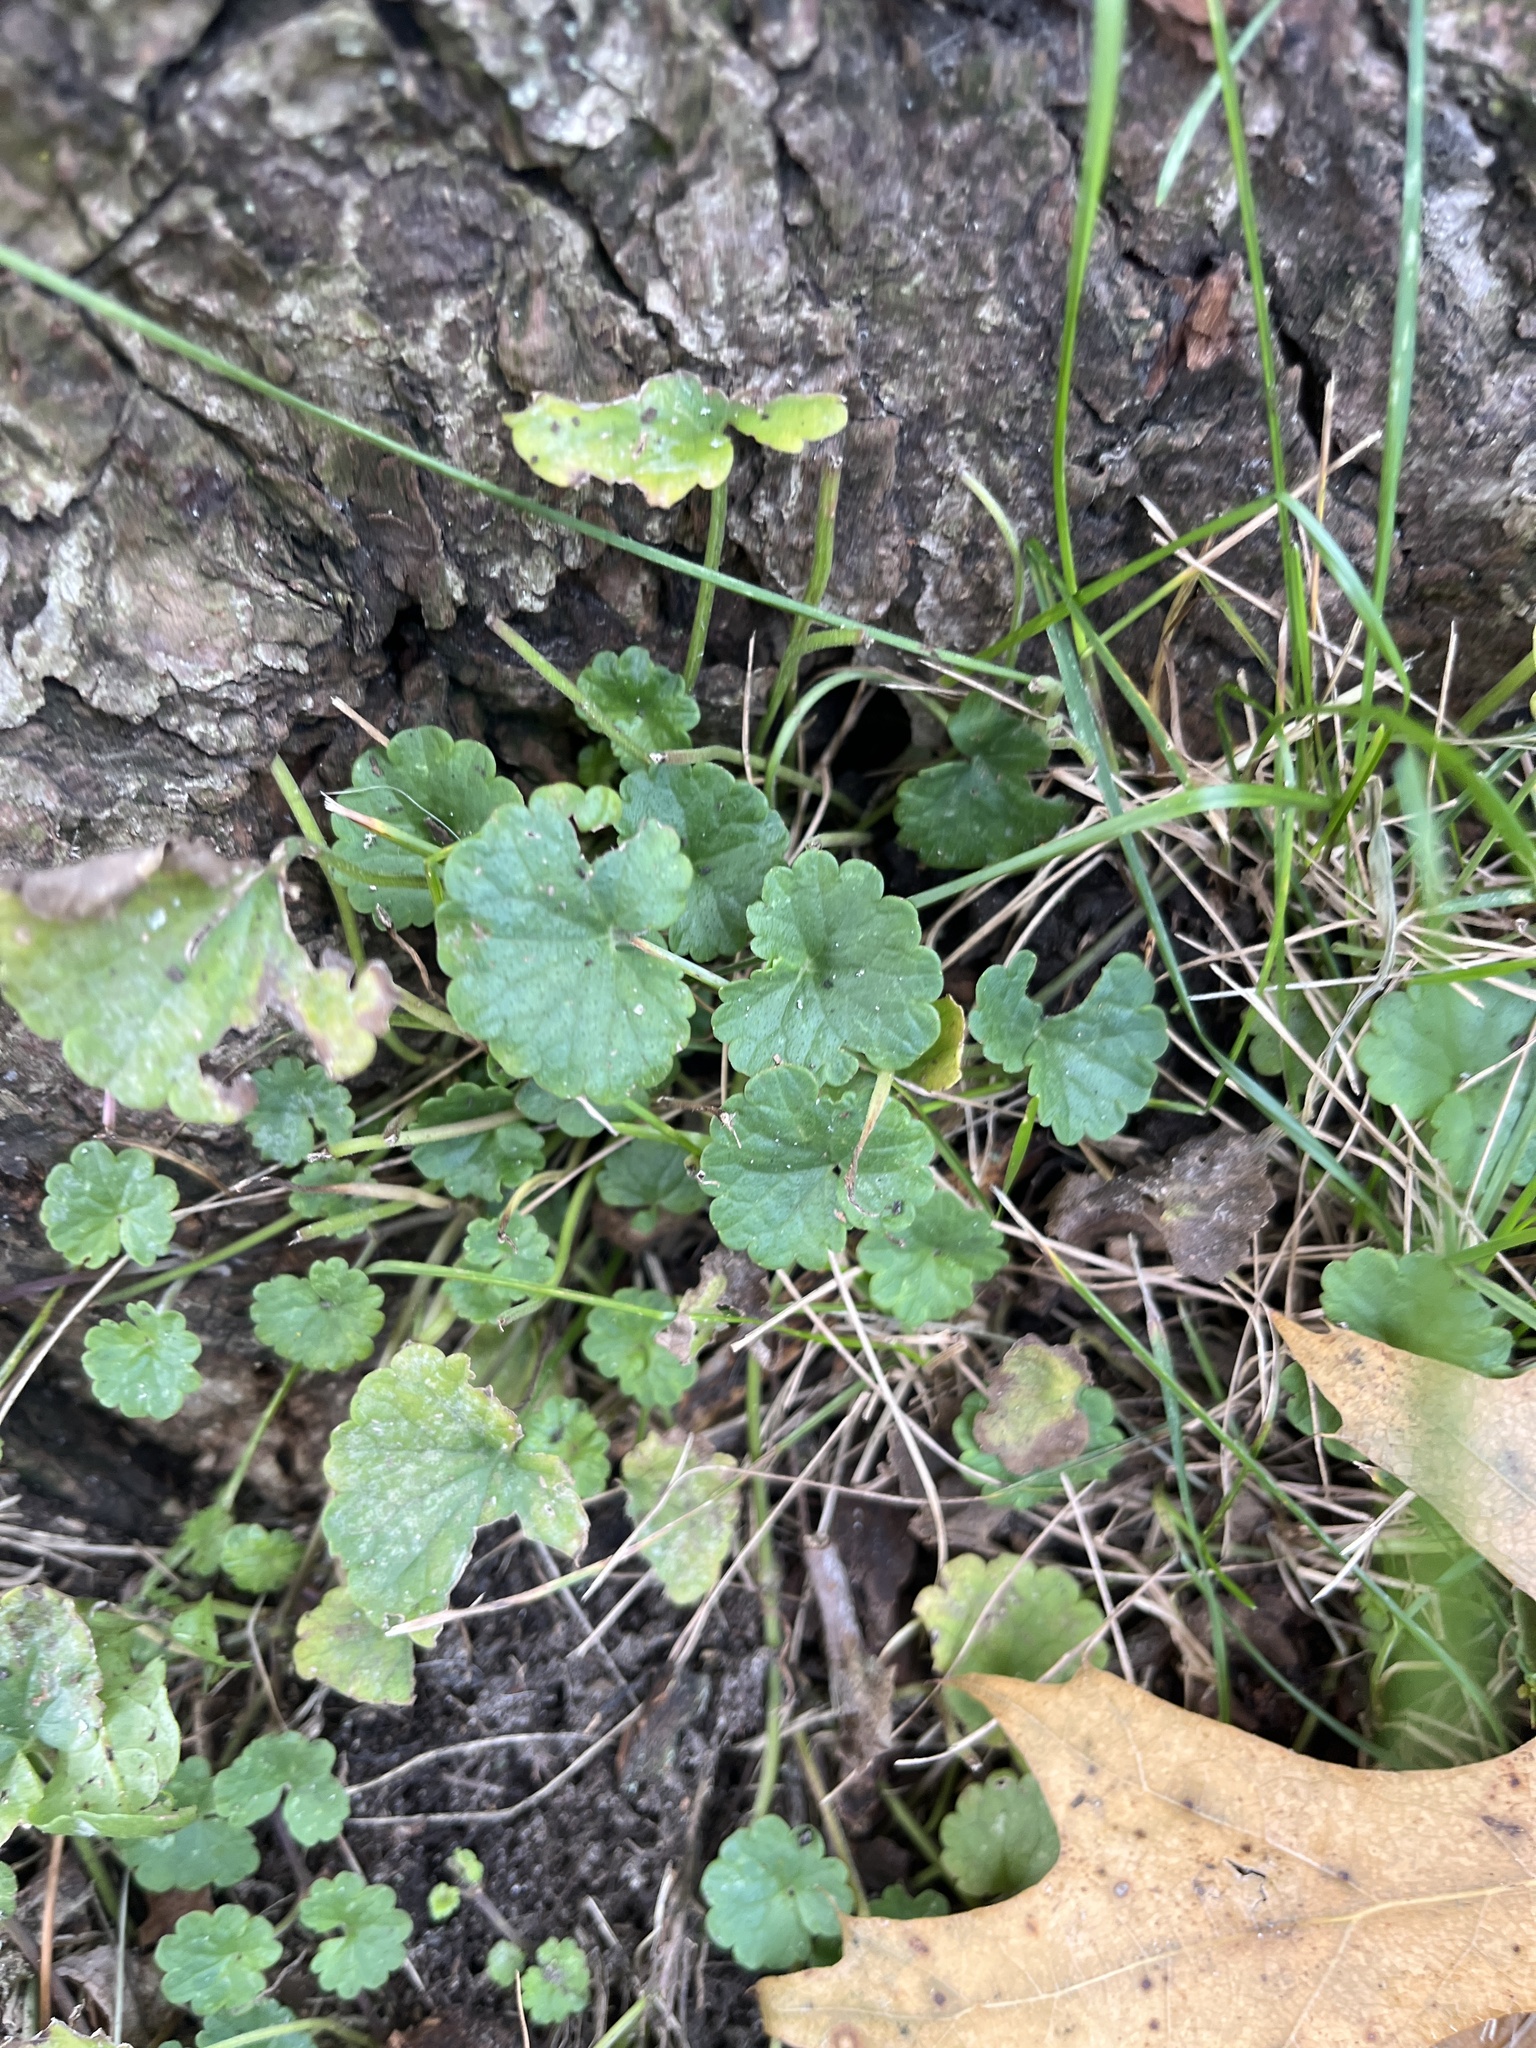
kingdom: Plantae
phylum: Tracheophyta
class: Magnoliopsida
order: Lamiales
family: Lamiaceae
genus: Glechoma
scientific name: Glechoma hederacea
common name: Ground ivy
